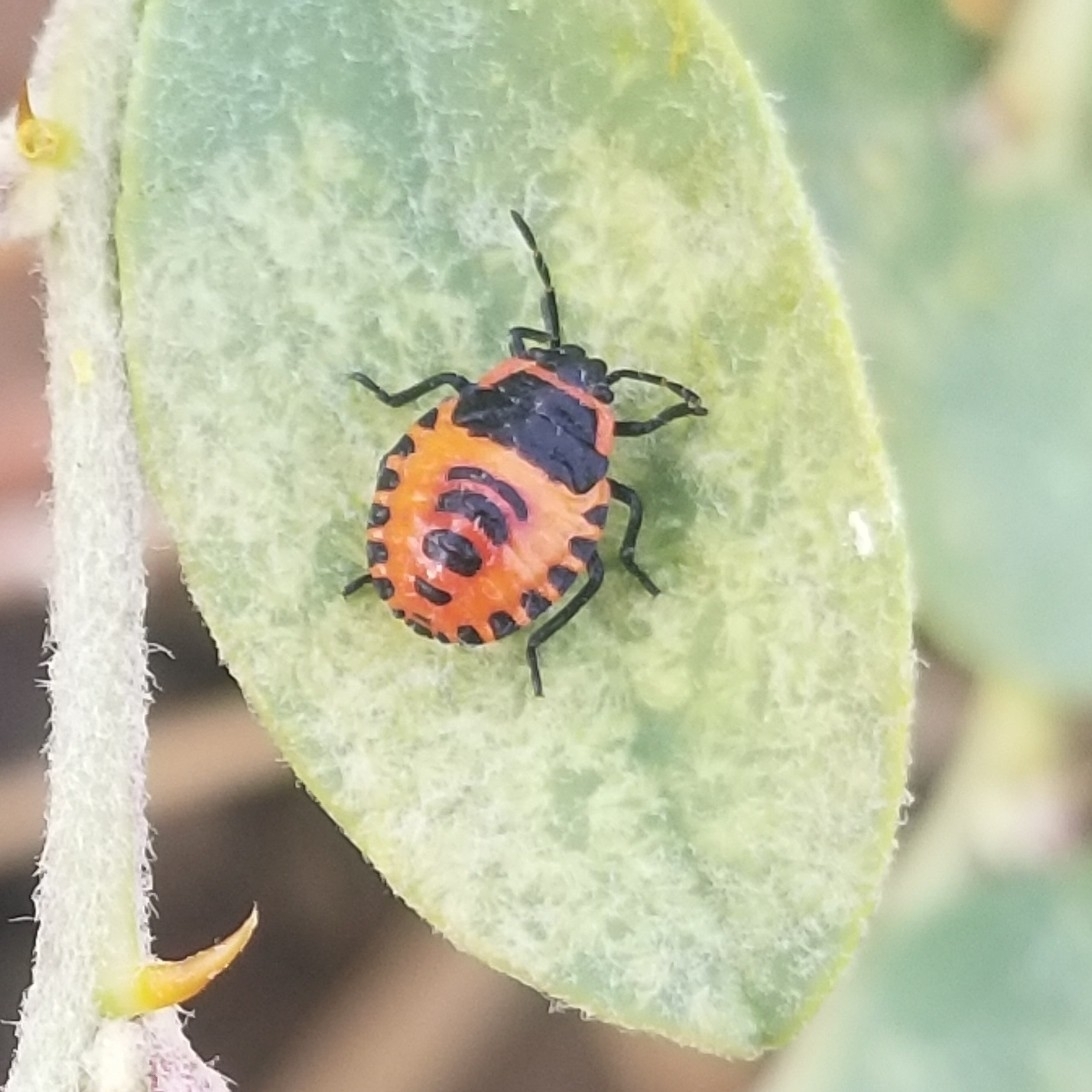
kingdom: Animalia
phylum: Arthropoda
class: Insecta
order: Hemiptera
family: Pentatomidae
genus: Eurydema
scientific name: Eurydema eckerleini
